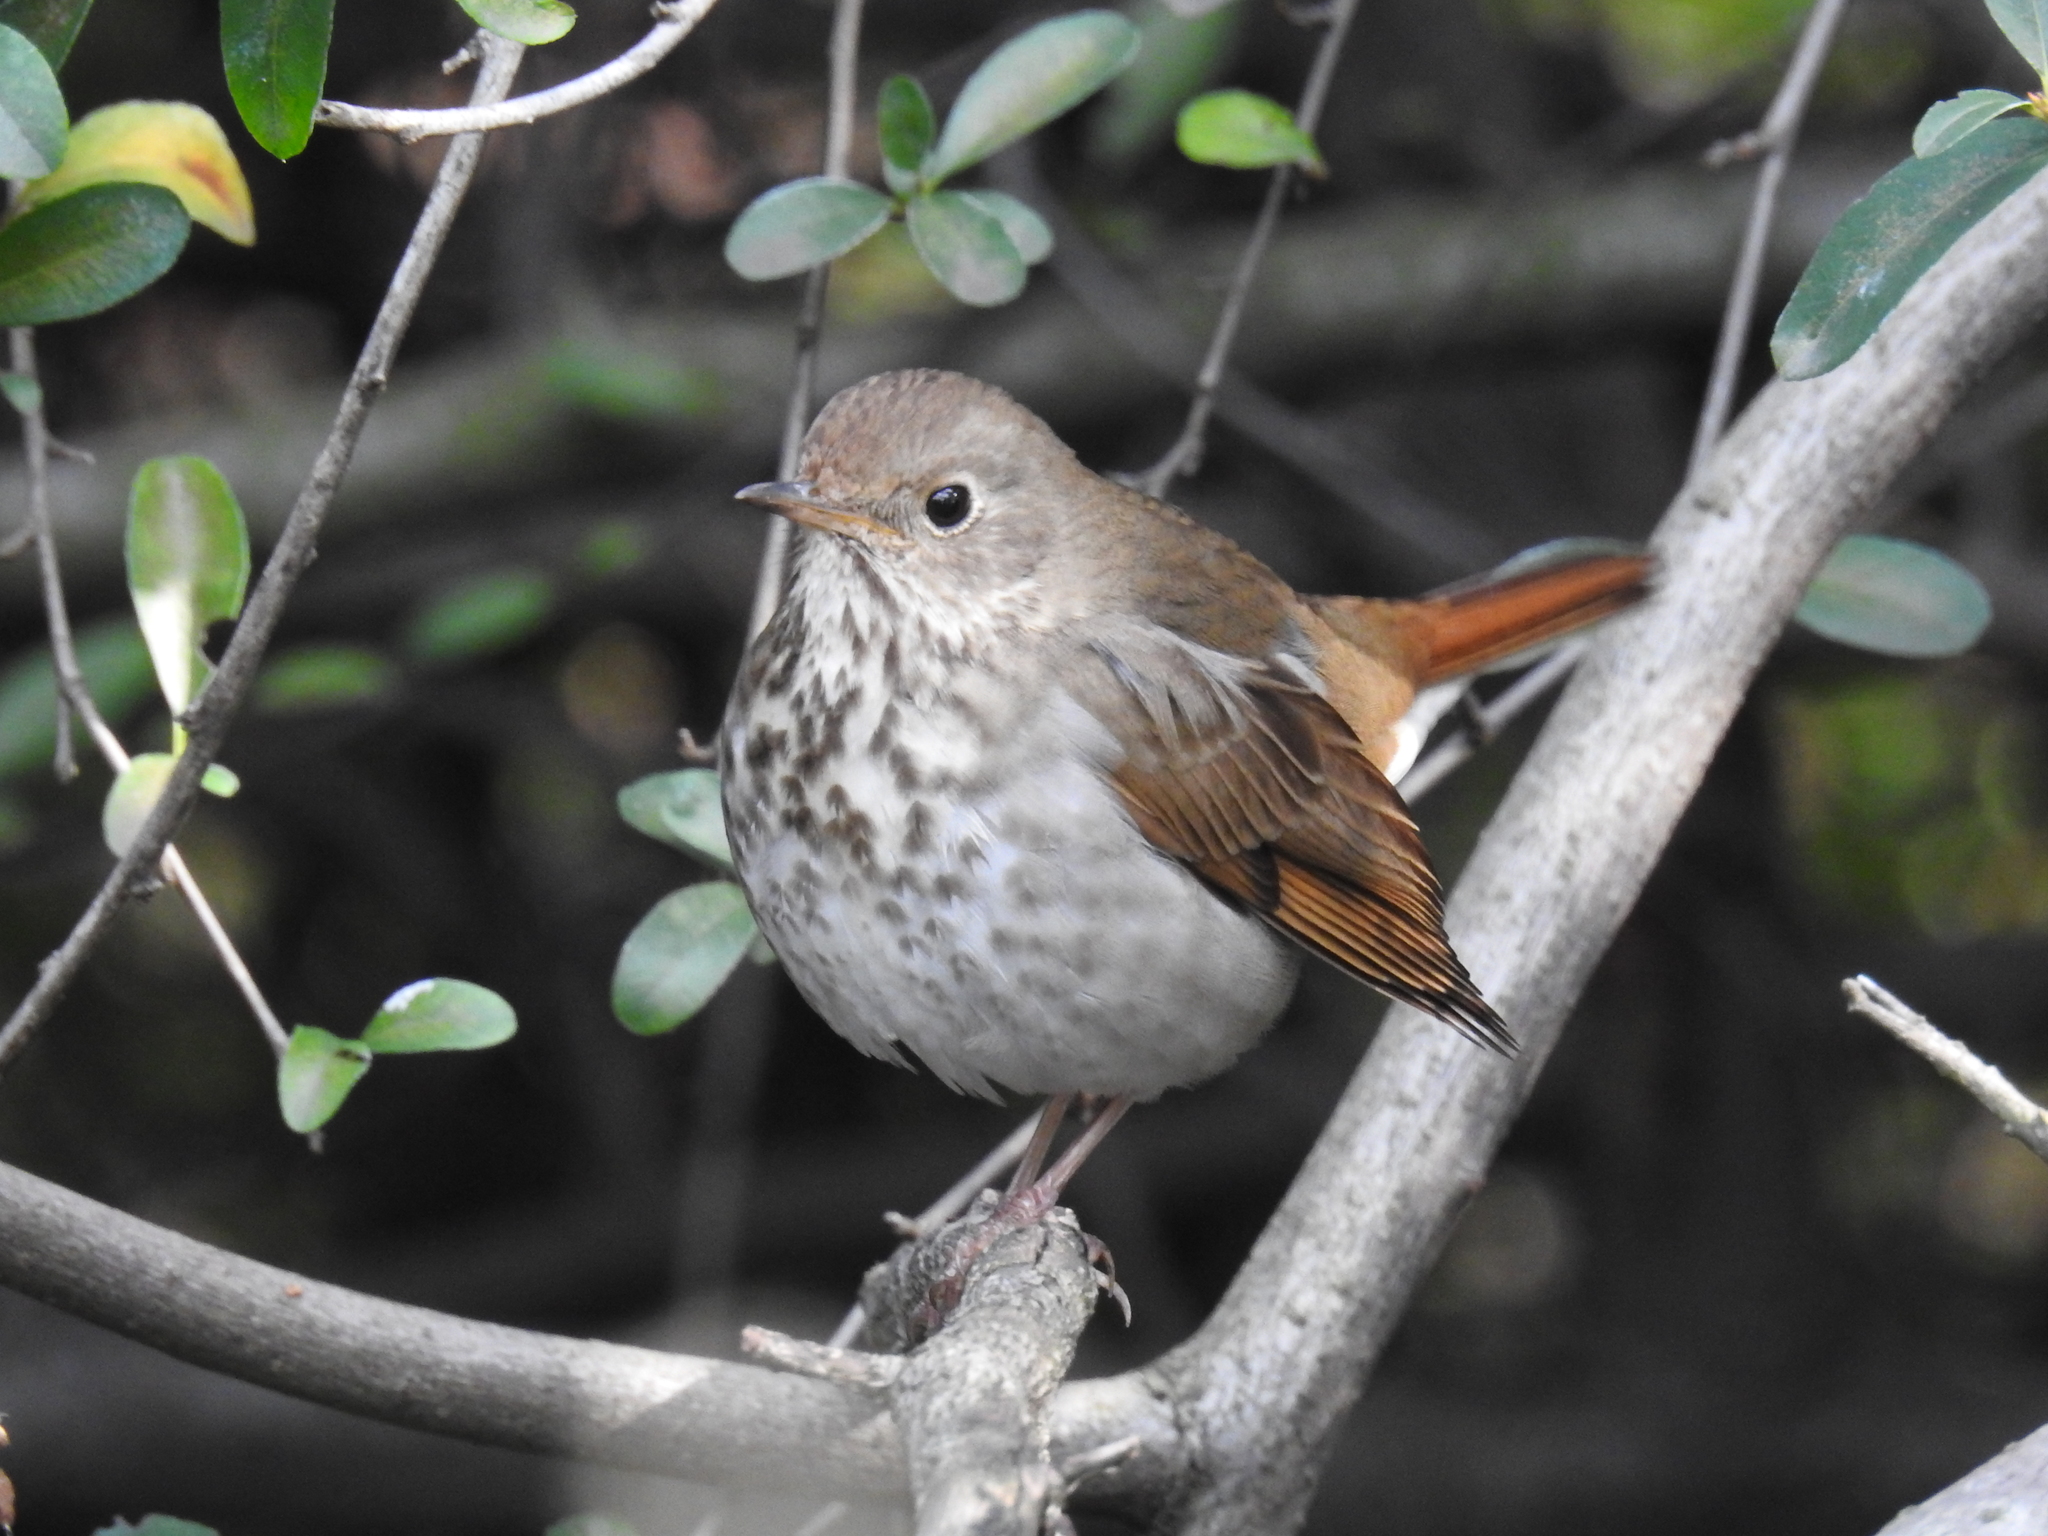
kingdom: Animalia
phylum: Chordata
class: Aves
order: Passeriformes
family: Turdidae
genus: Catharus
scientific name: Catharus guttatus
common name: Hermit thrush
